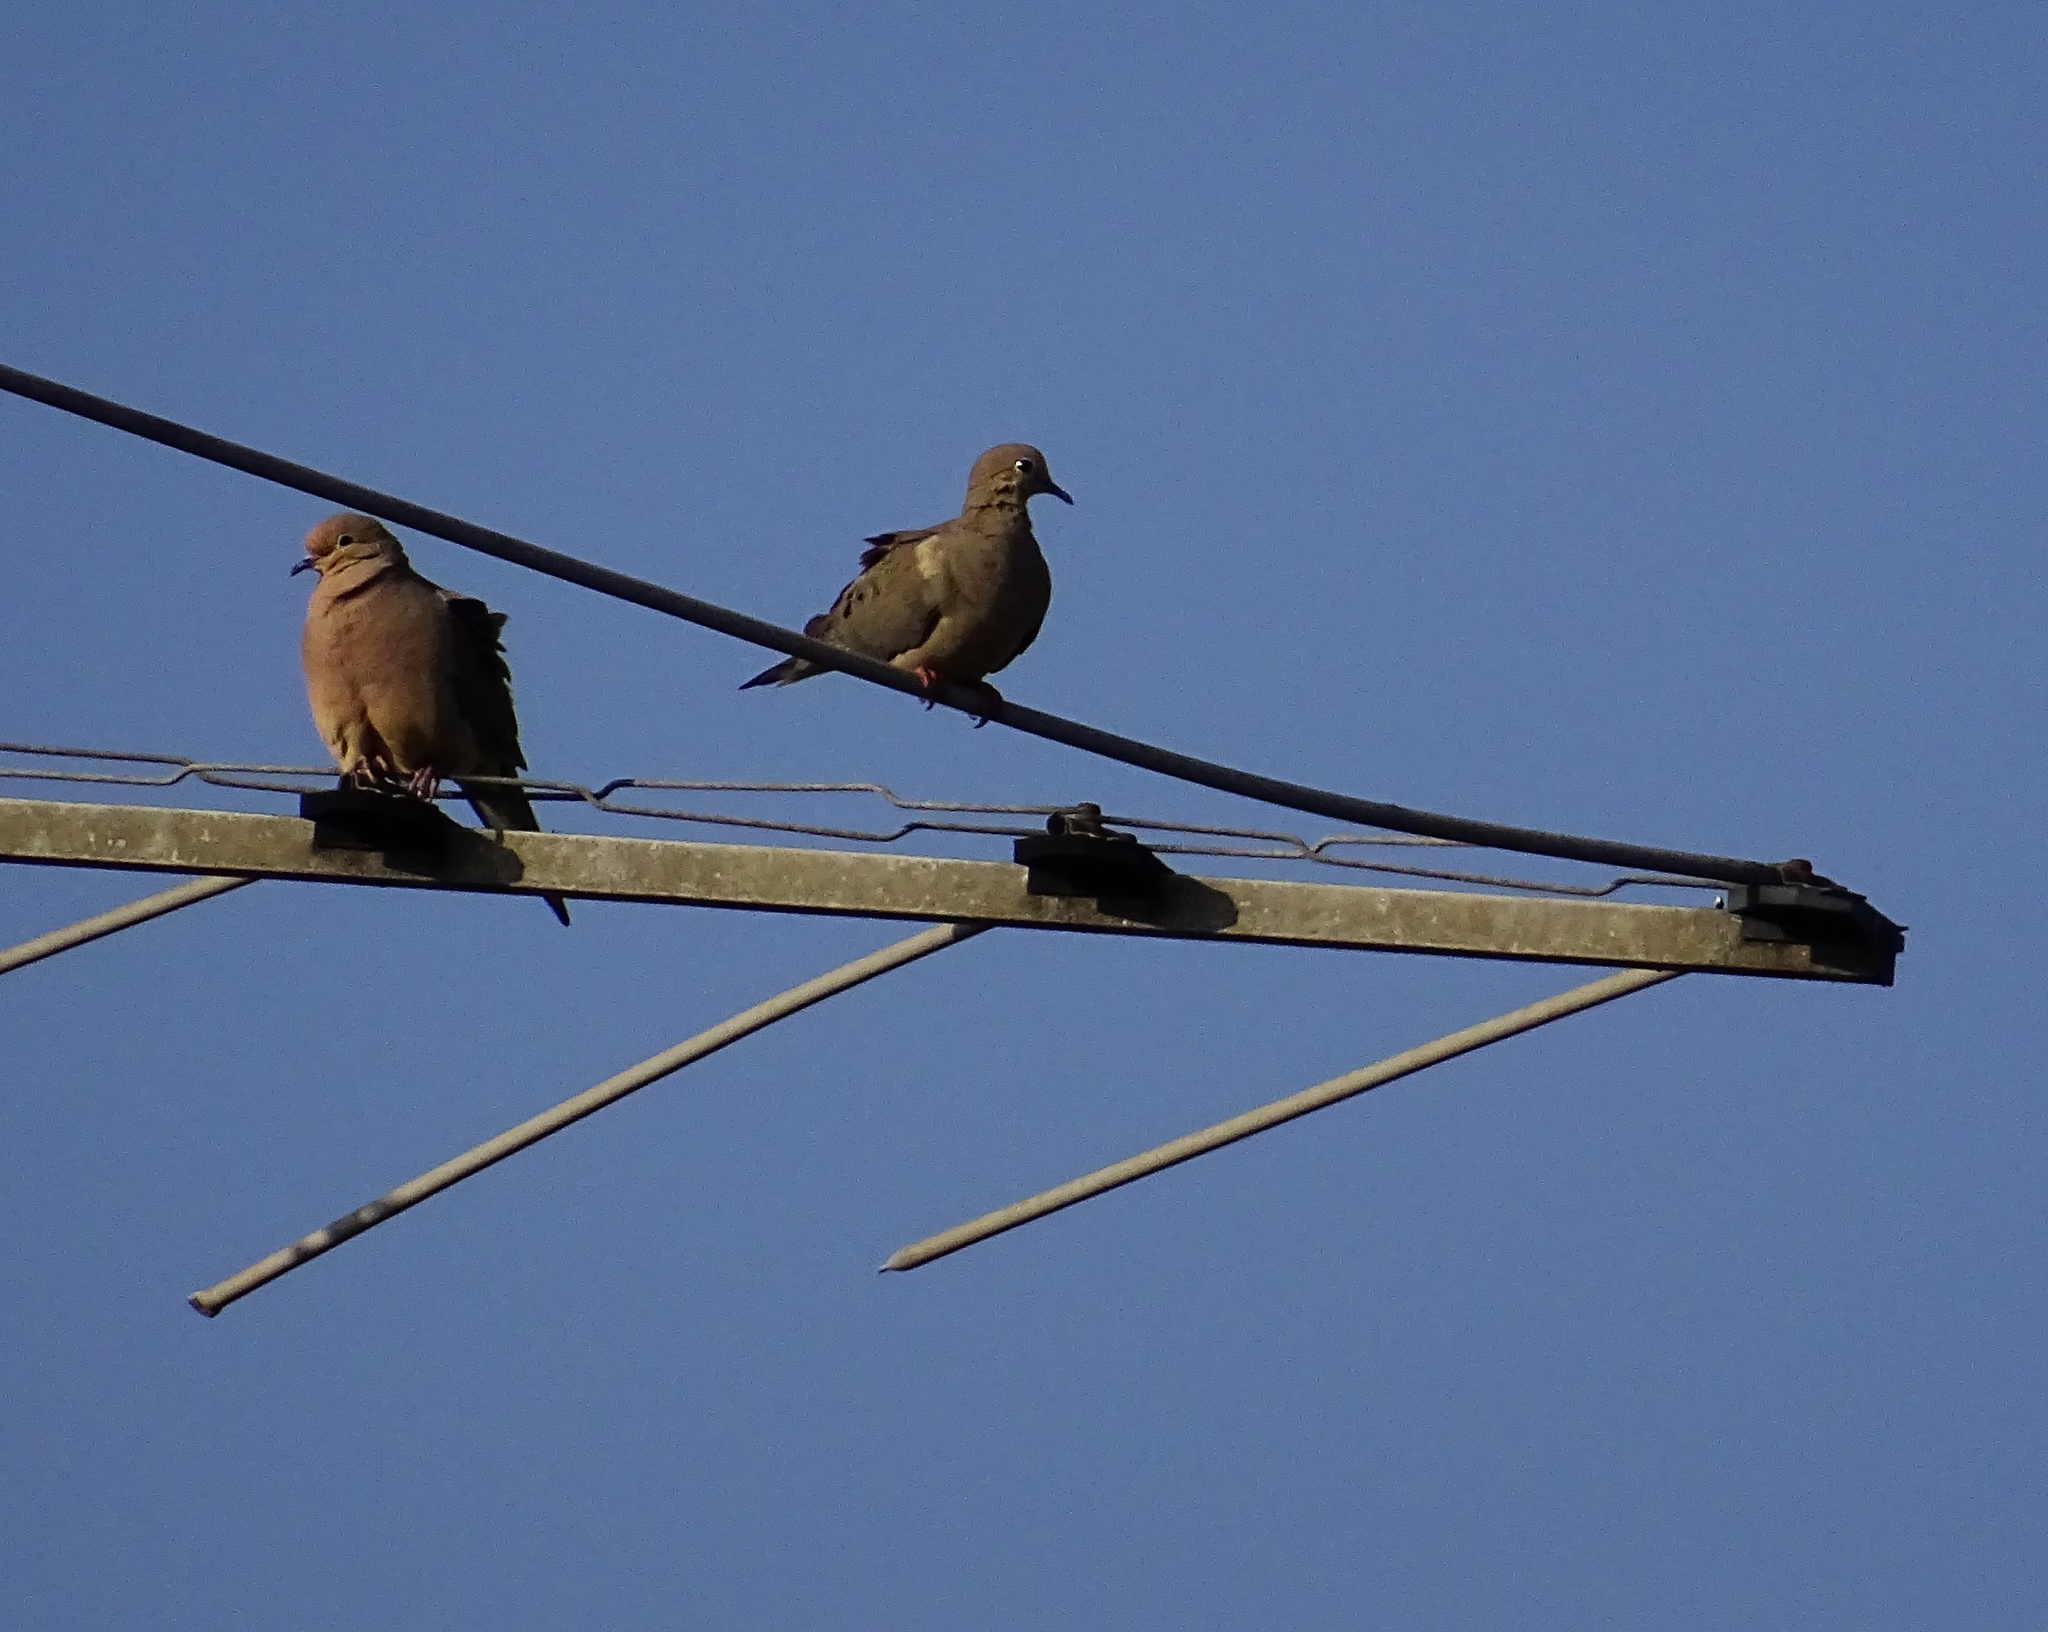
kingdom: Animalia
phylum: Chordata
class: Aves
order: Columbiformes
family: Columbidae
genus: Zenaida
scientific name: Zenaida macroura
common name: Mourning dove
